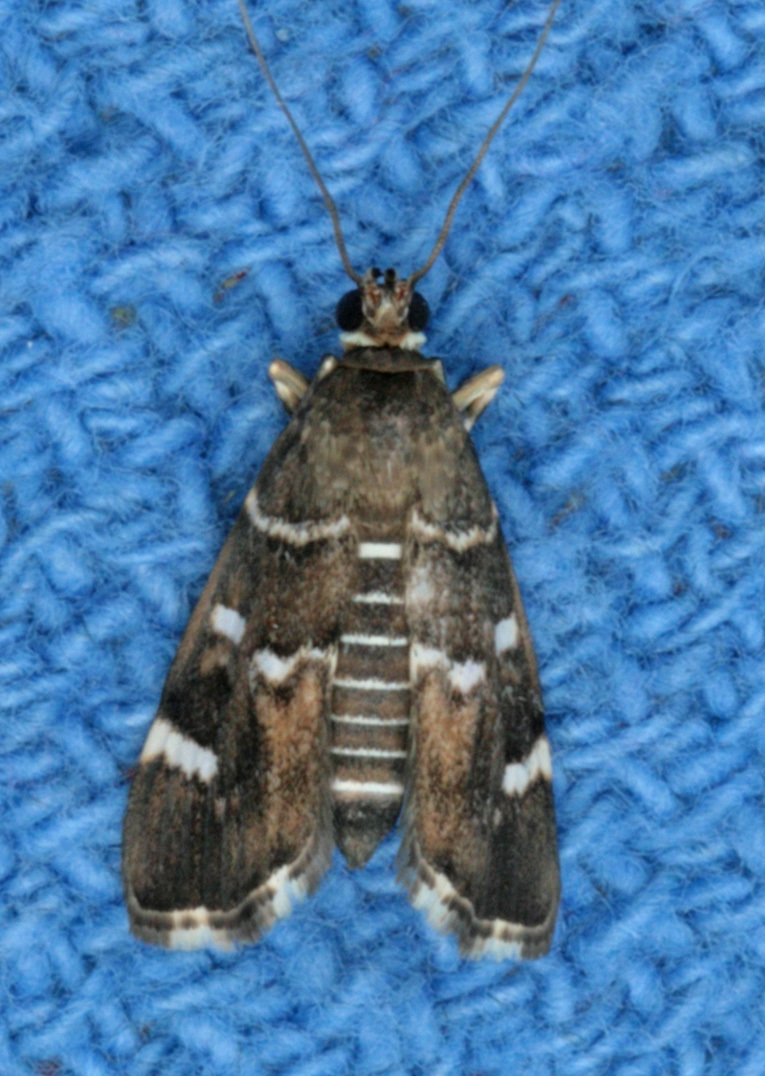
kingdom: Animalia
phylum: Arthropoda
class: Insecta
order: Lepidoptera
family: Crambidae
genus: Hymenia
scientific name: Hymenia perspectalis
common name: Spotted beet webworm
